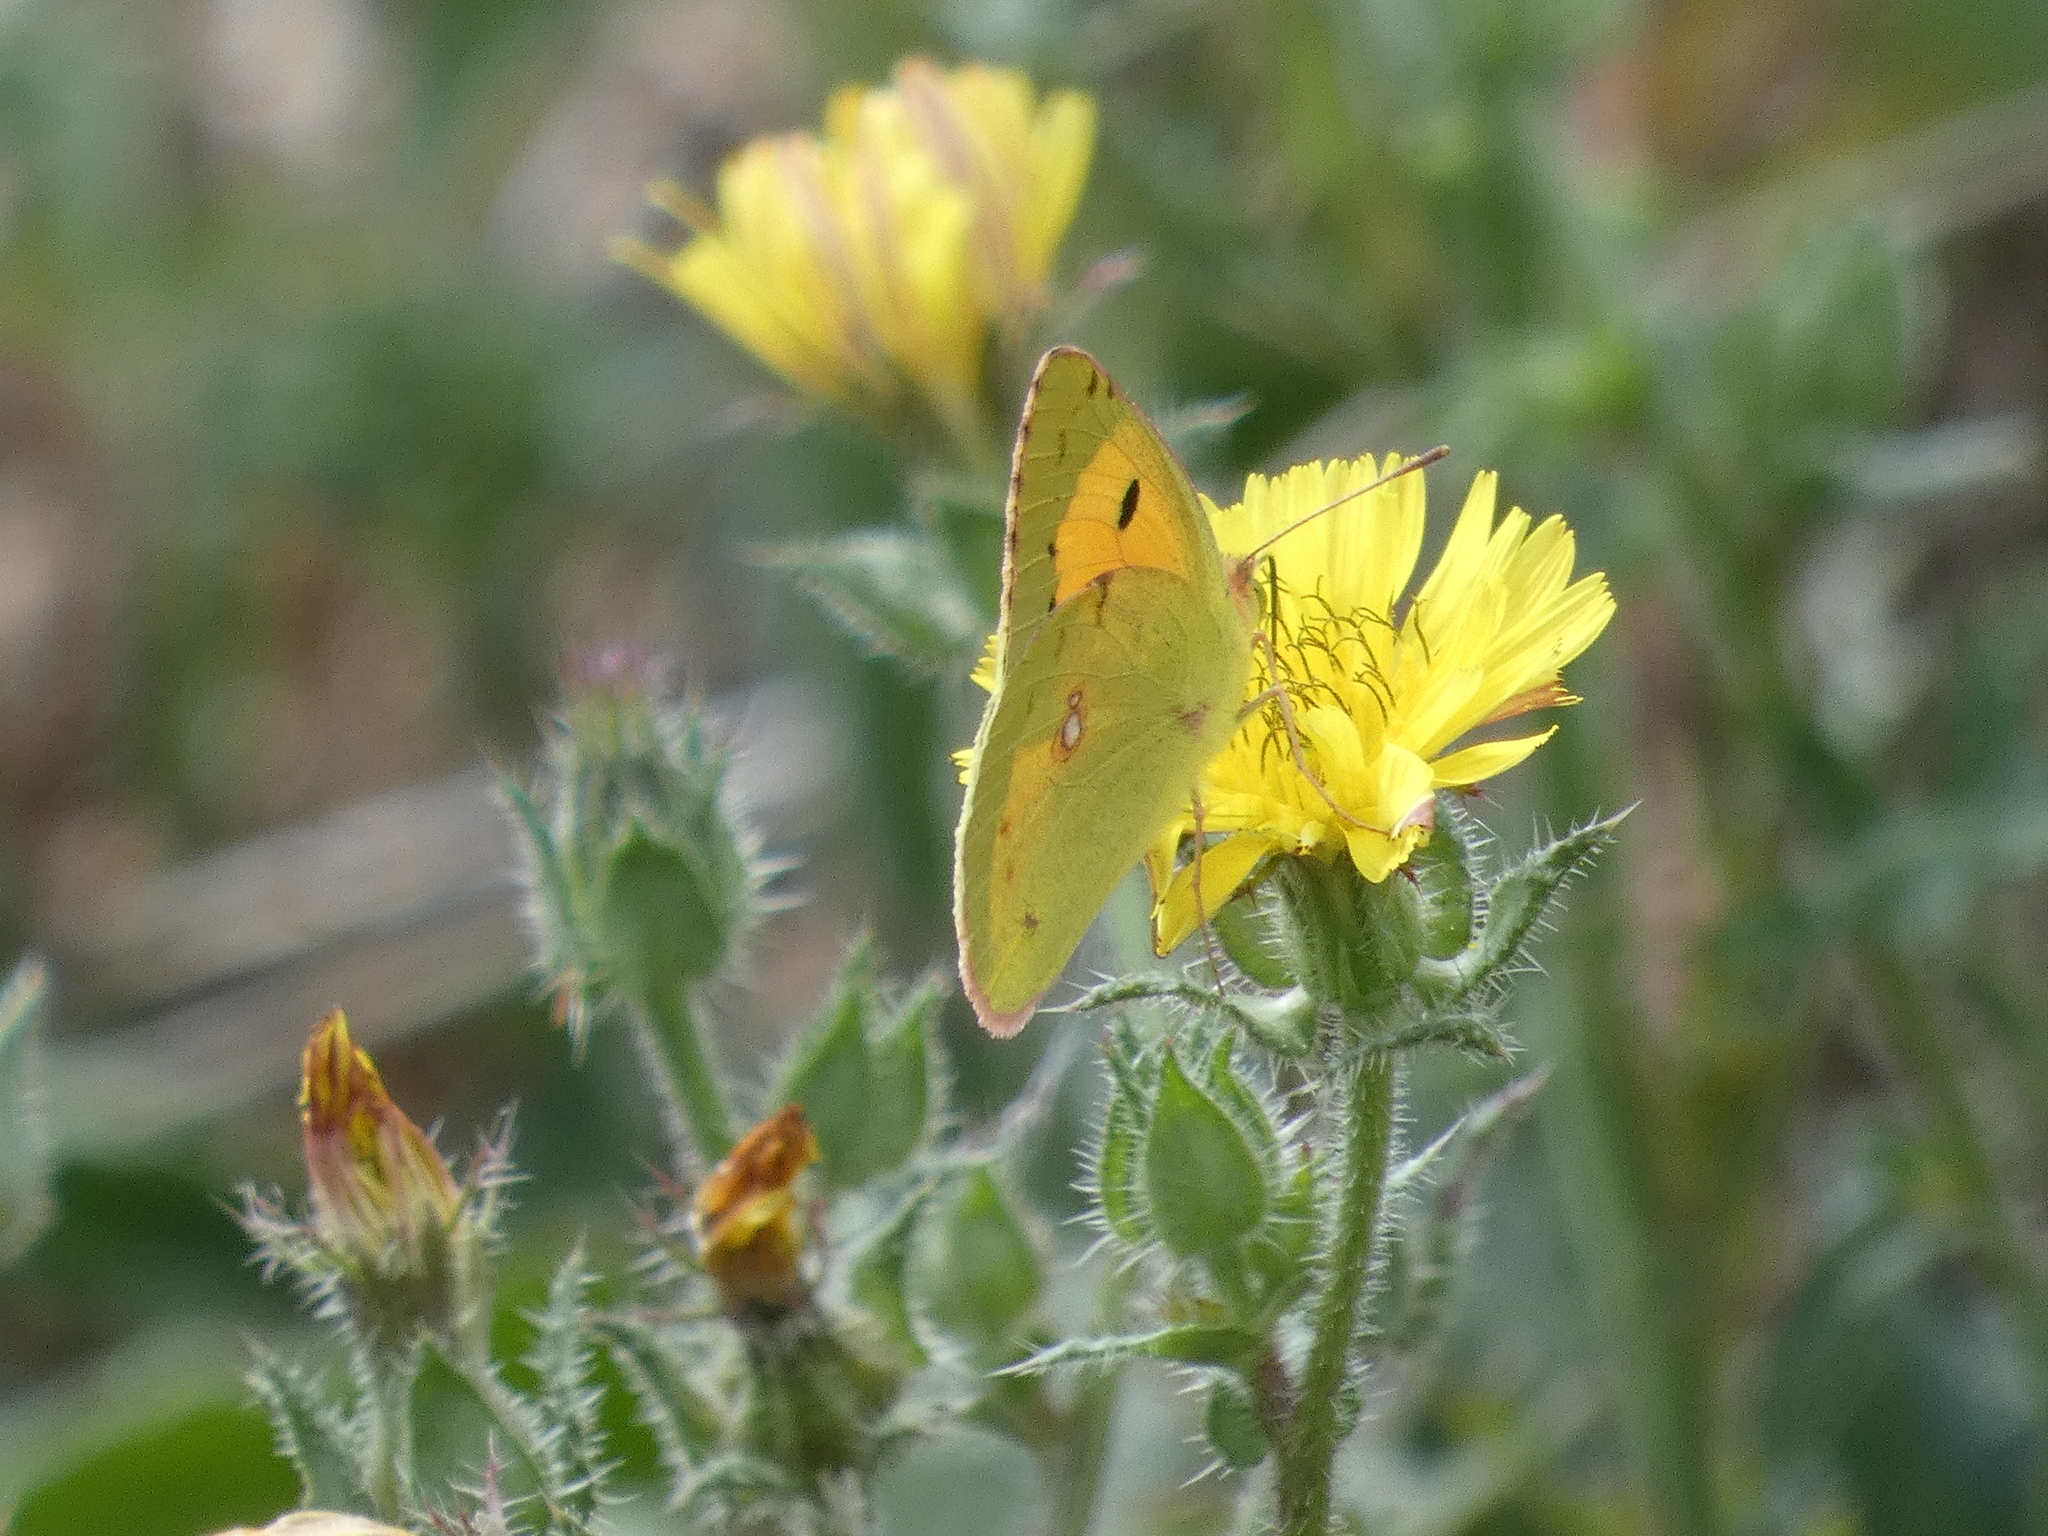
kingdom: Animalia
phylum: Arthropoda
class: Insecta
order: Lepidoptera
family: Pieridae
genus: Colias
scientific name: Colias croceus
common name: Clouded yellow
